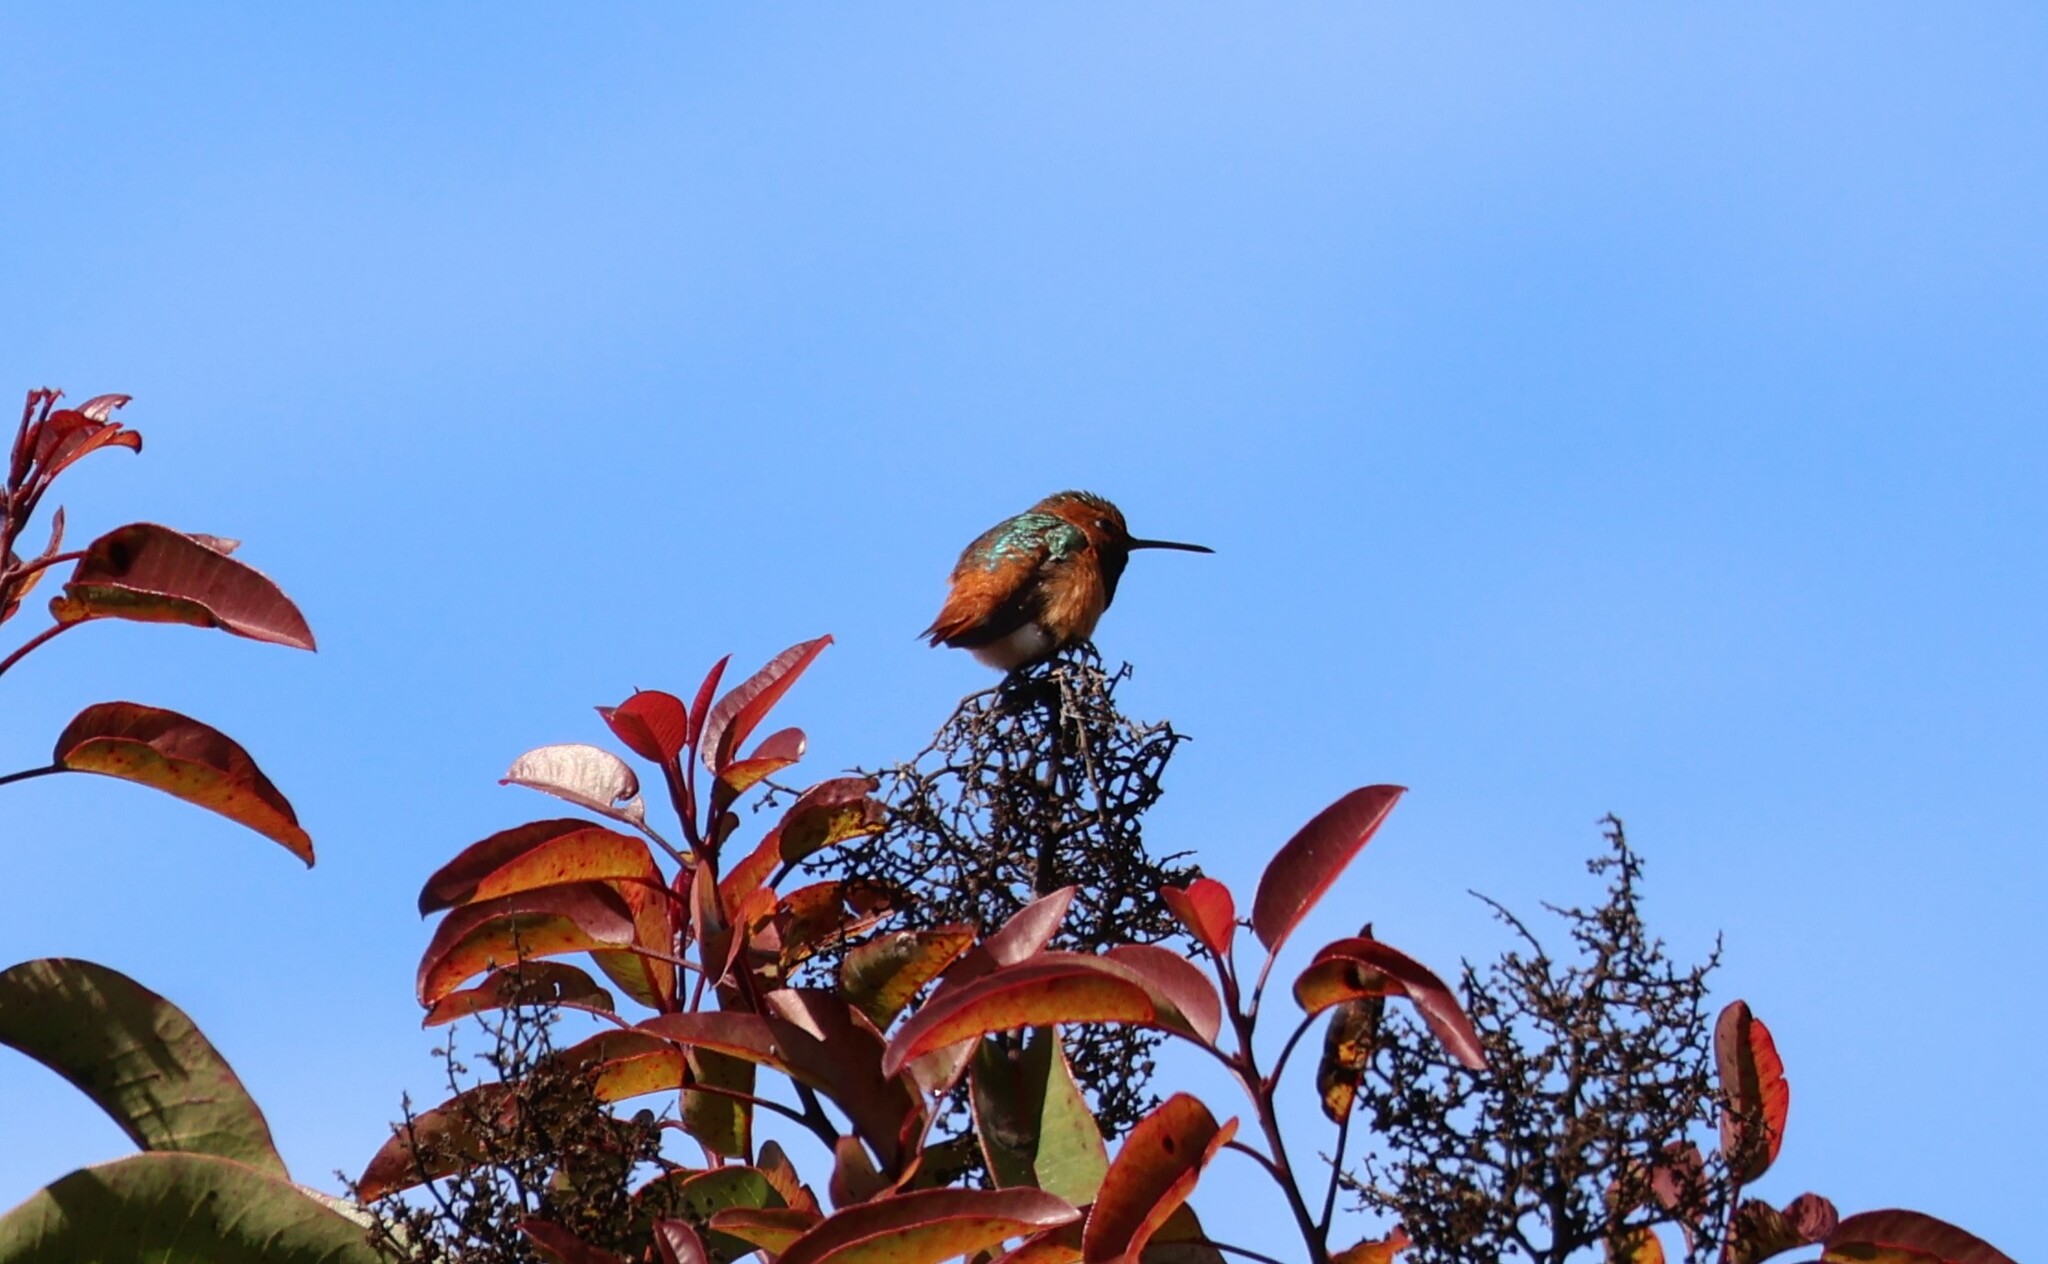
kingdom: Animalia
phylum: Chordata
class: Aves
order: Apodiformes
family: Trochilidae
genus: Selasphorus
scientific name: Selasphorus sasin
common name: Allen's hummingbird
